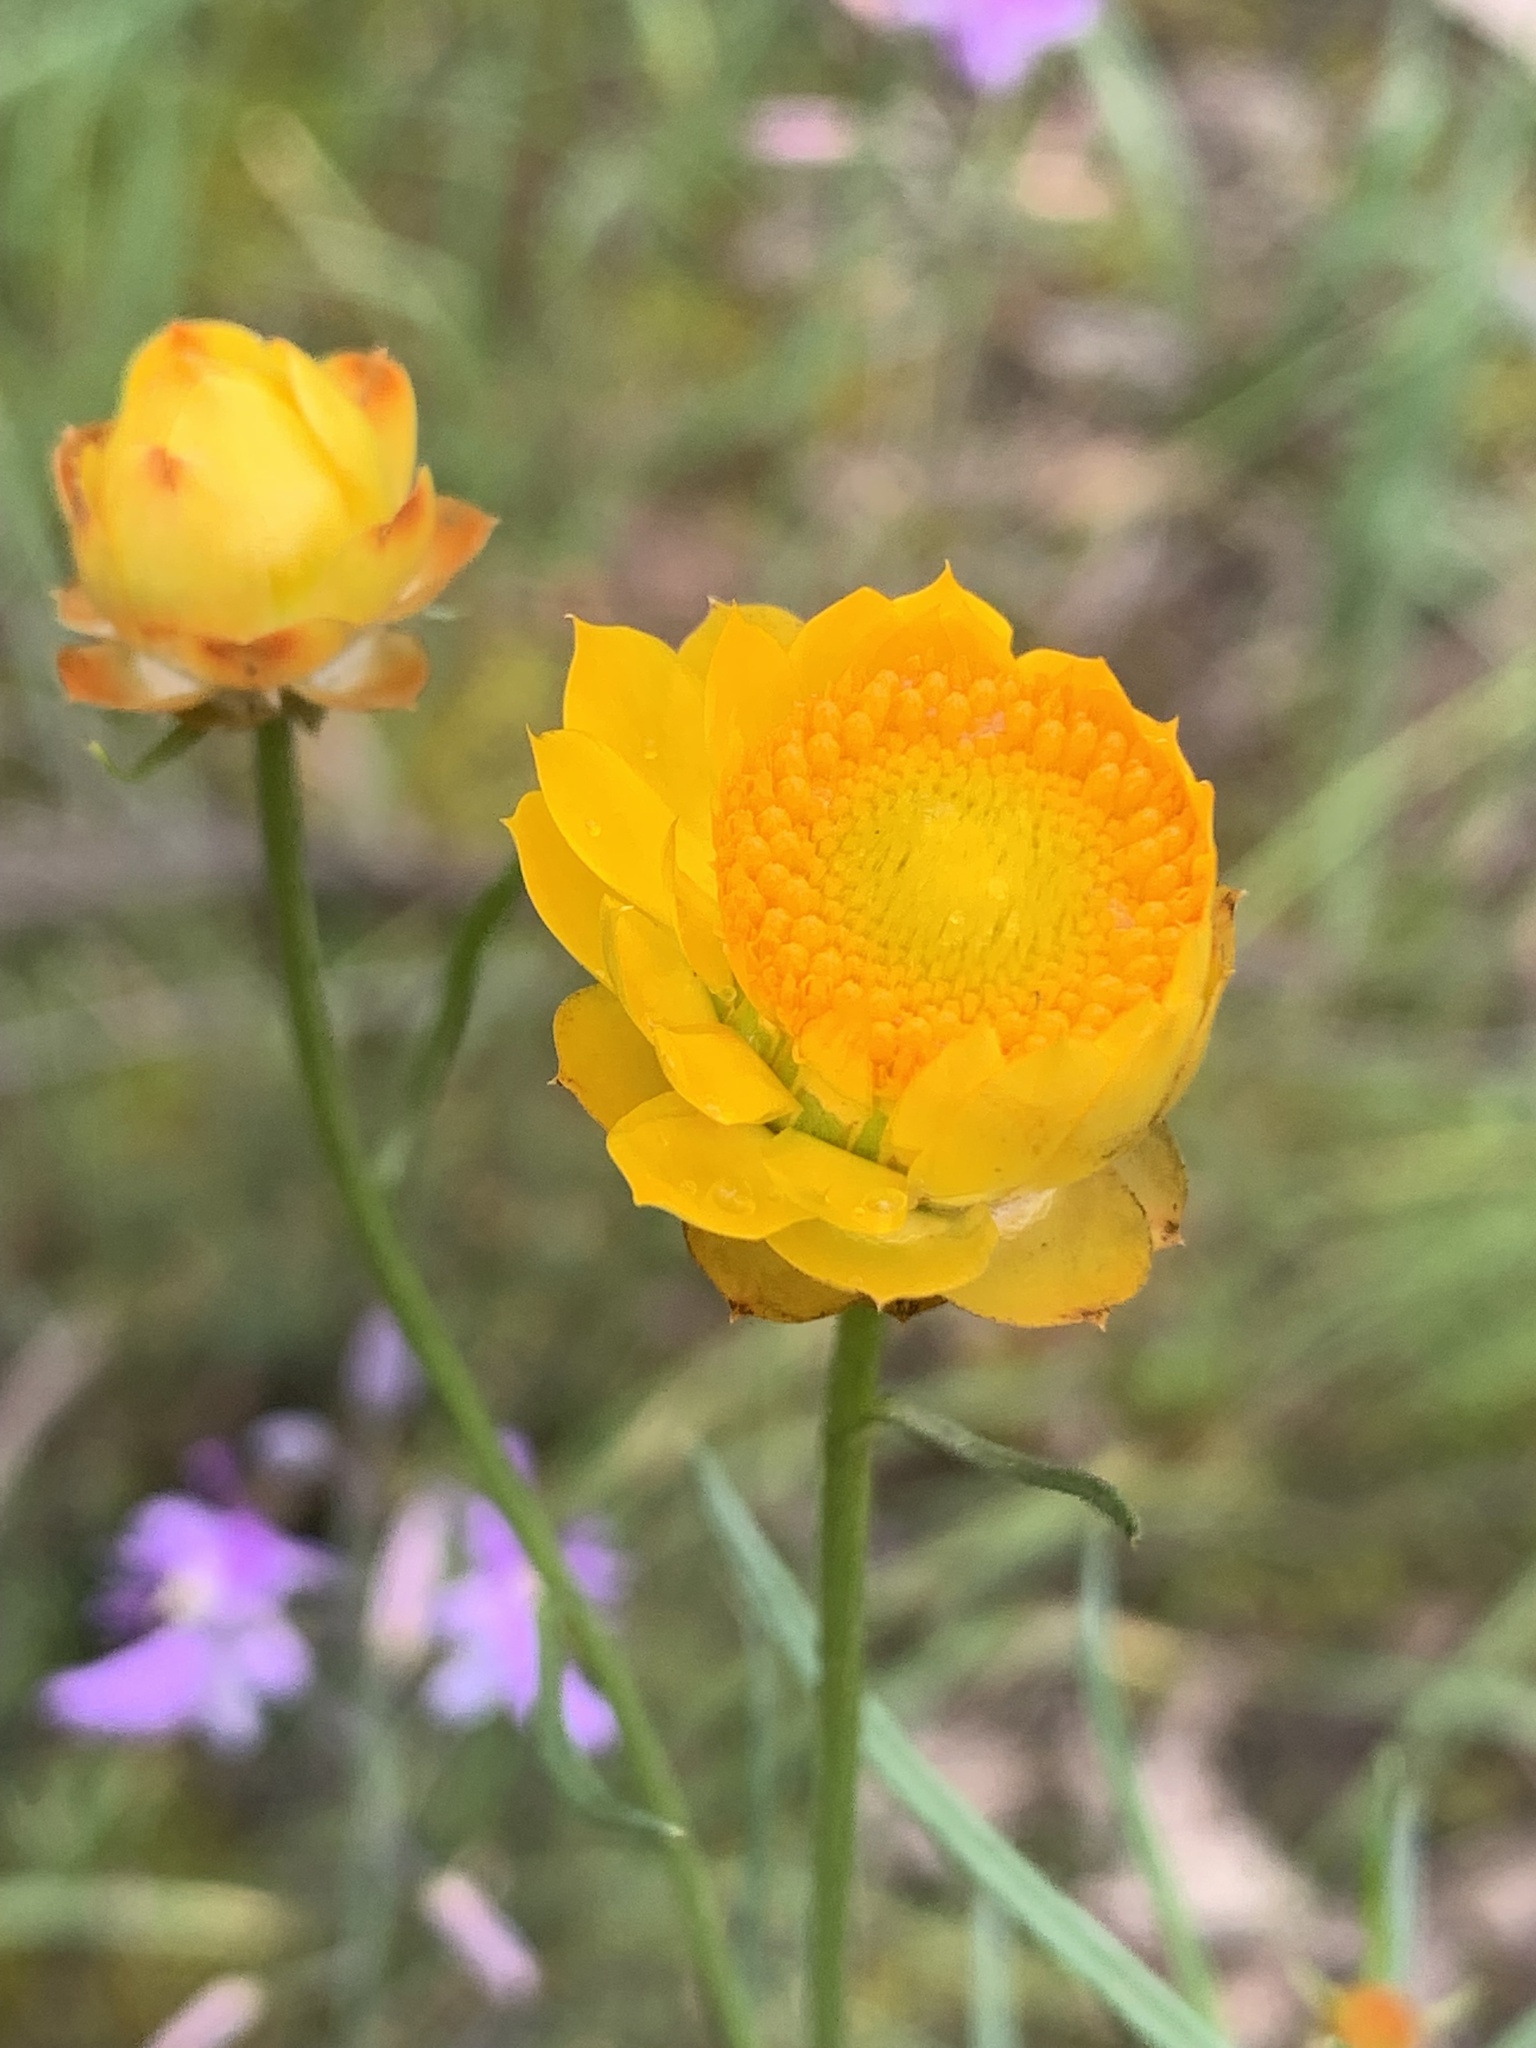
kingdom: Plantae
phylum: Tracheophyta
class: Magnoliopsida
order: Asterales
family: Asteraceae
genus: Xerochrysum
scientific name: Xerochrysum viscosum
